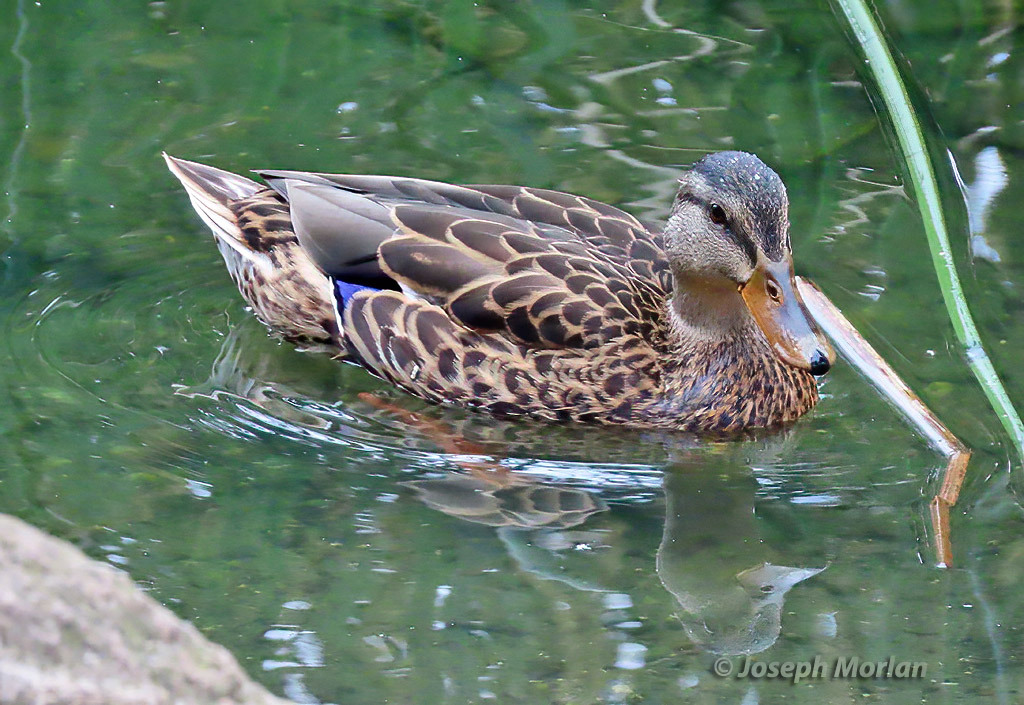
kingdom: Animalia
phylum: Chordata
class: Aves
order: Anseriformes
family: Anatidae
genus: Anas
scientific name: Anas platyrhynchos
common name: Mallard
